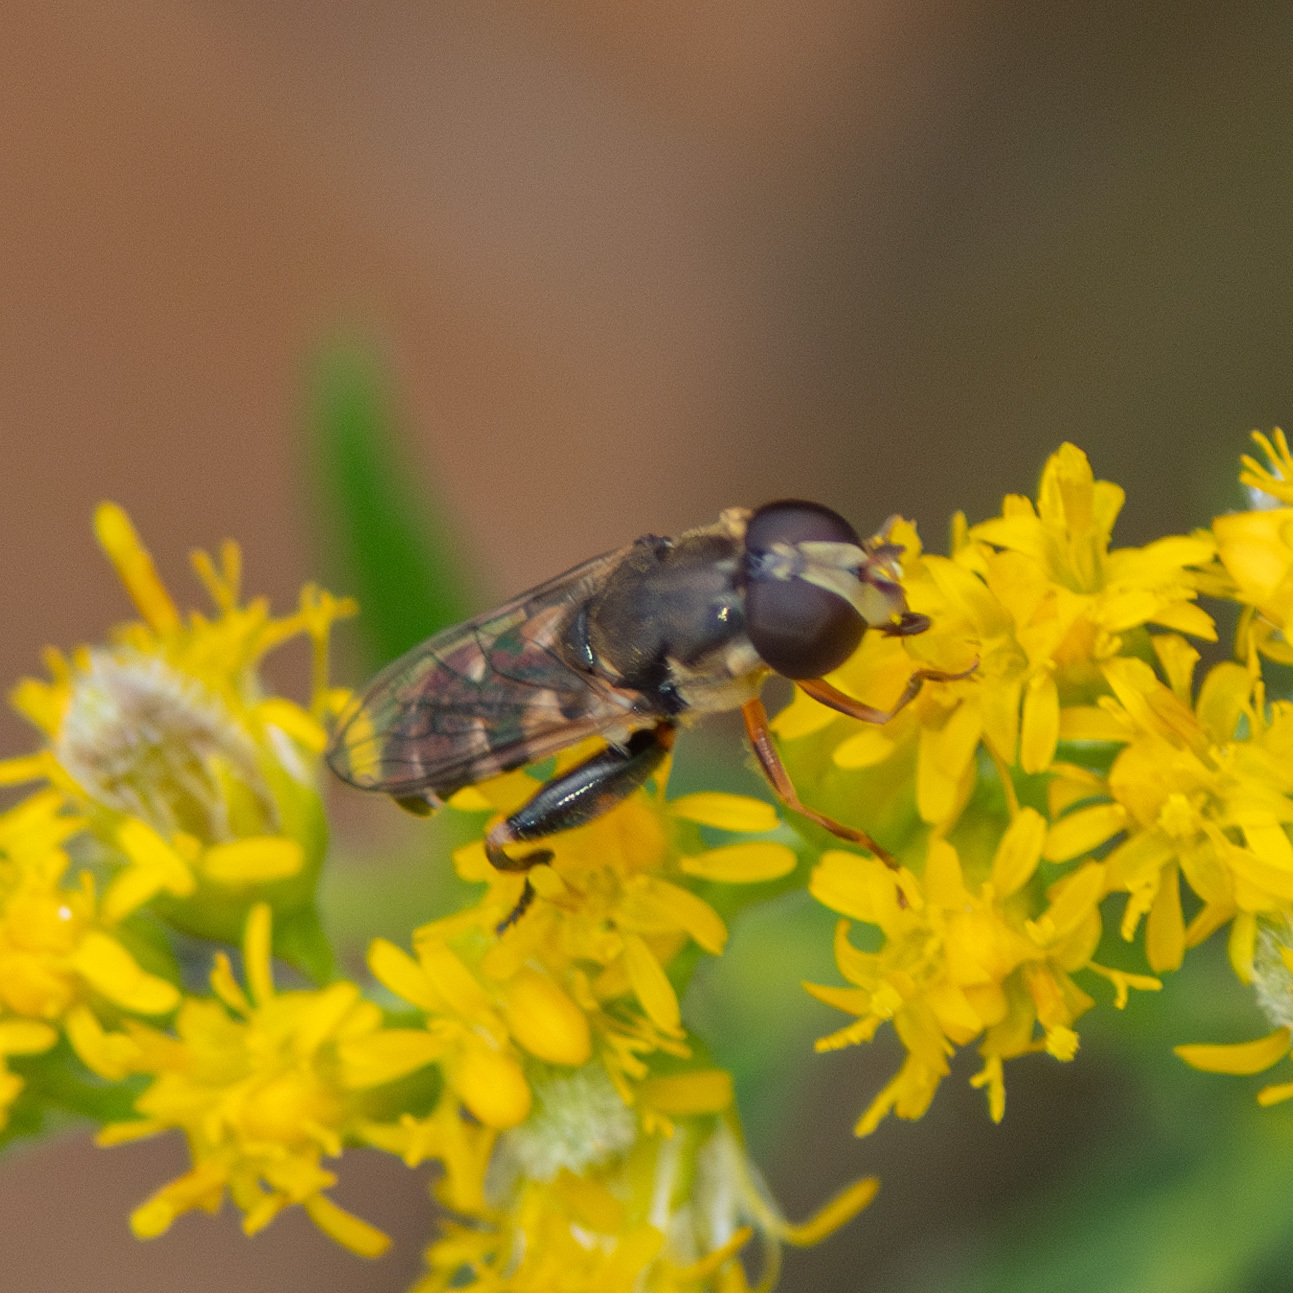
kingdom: Animalia
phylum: Arthropoda
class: Insecta
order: Diptera
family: Syrphidae
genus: Syritta
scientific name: Syritta pipiens
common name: Hover fly
